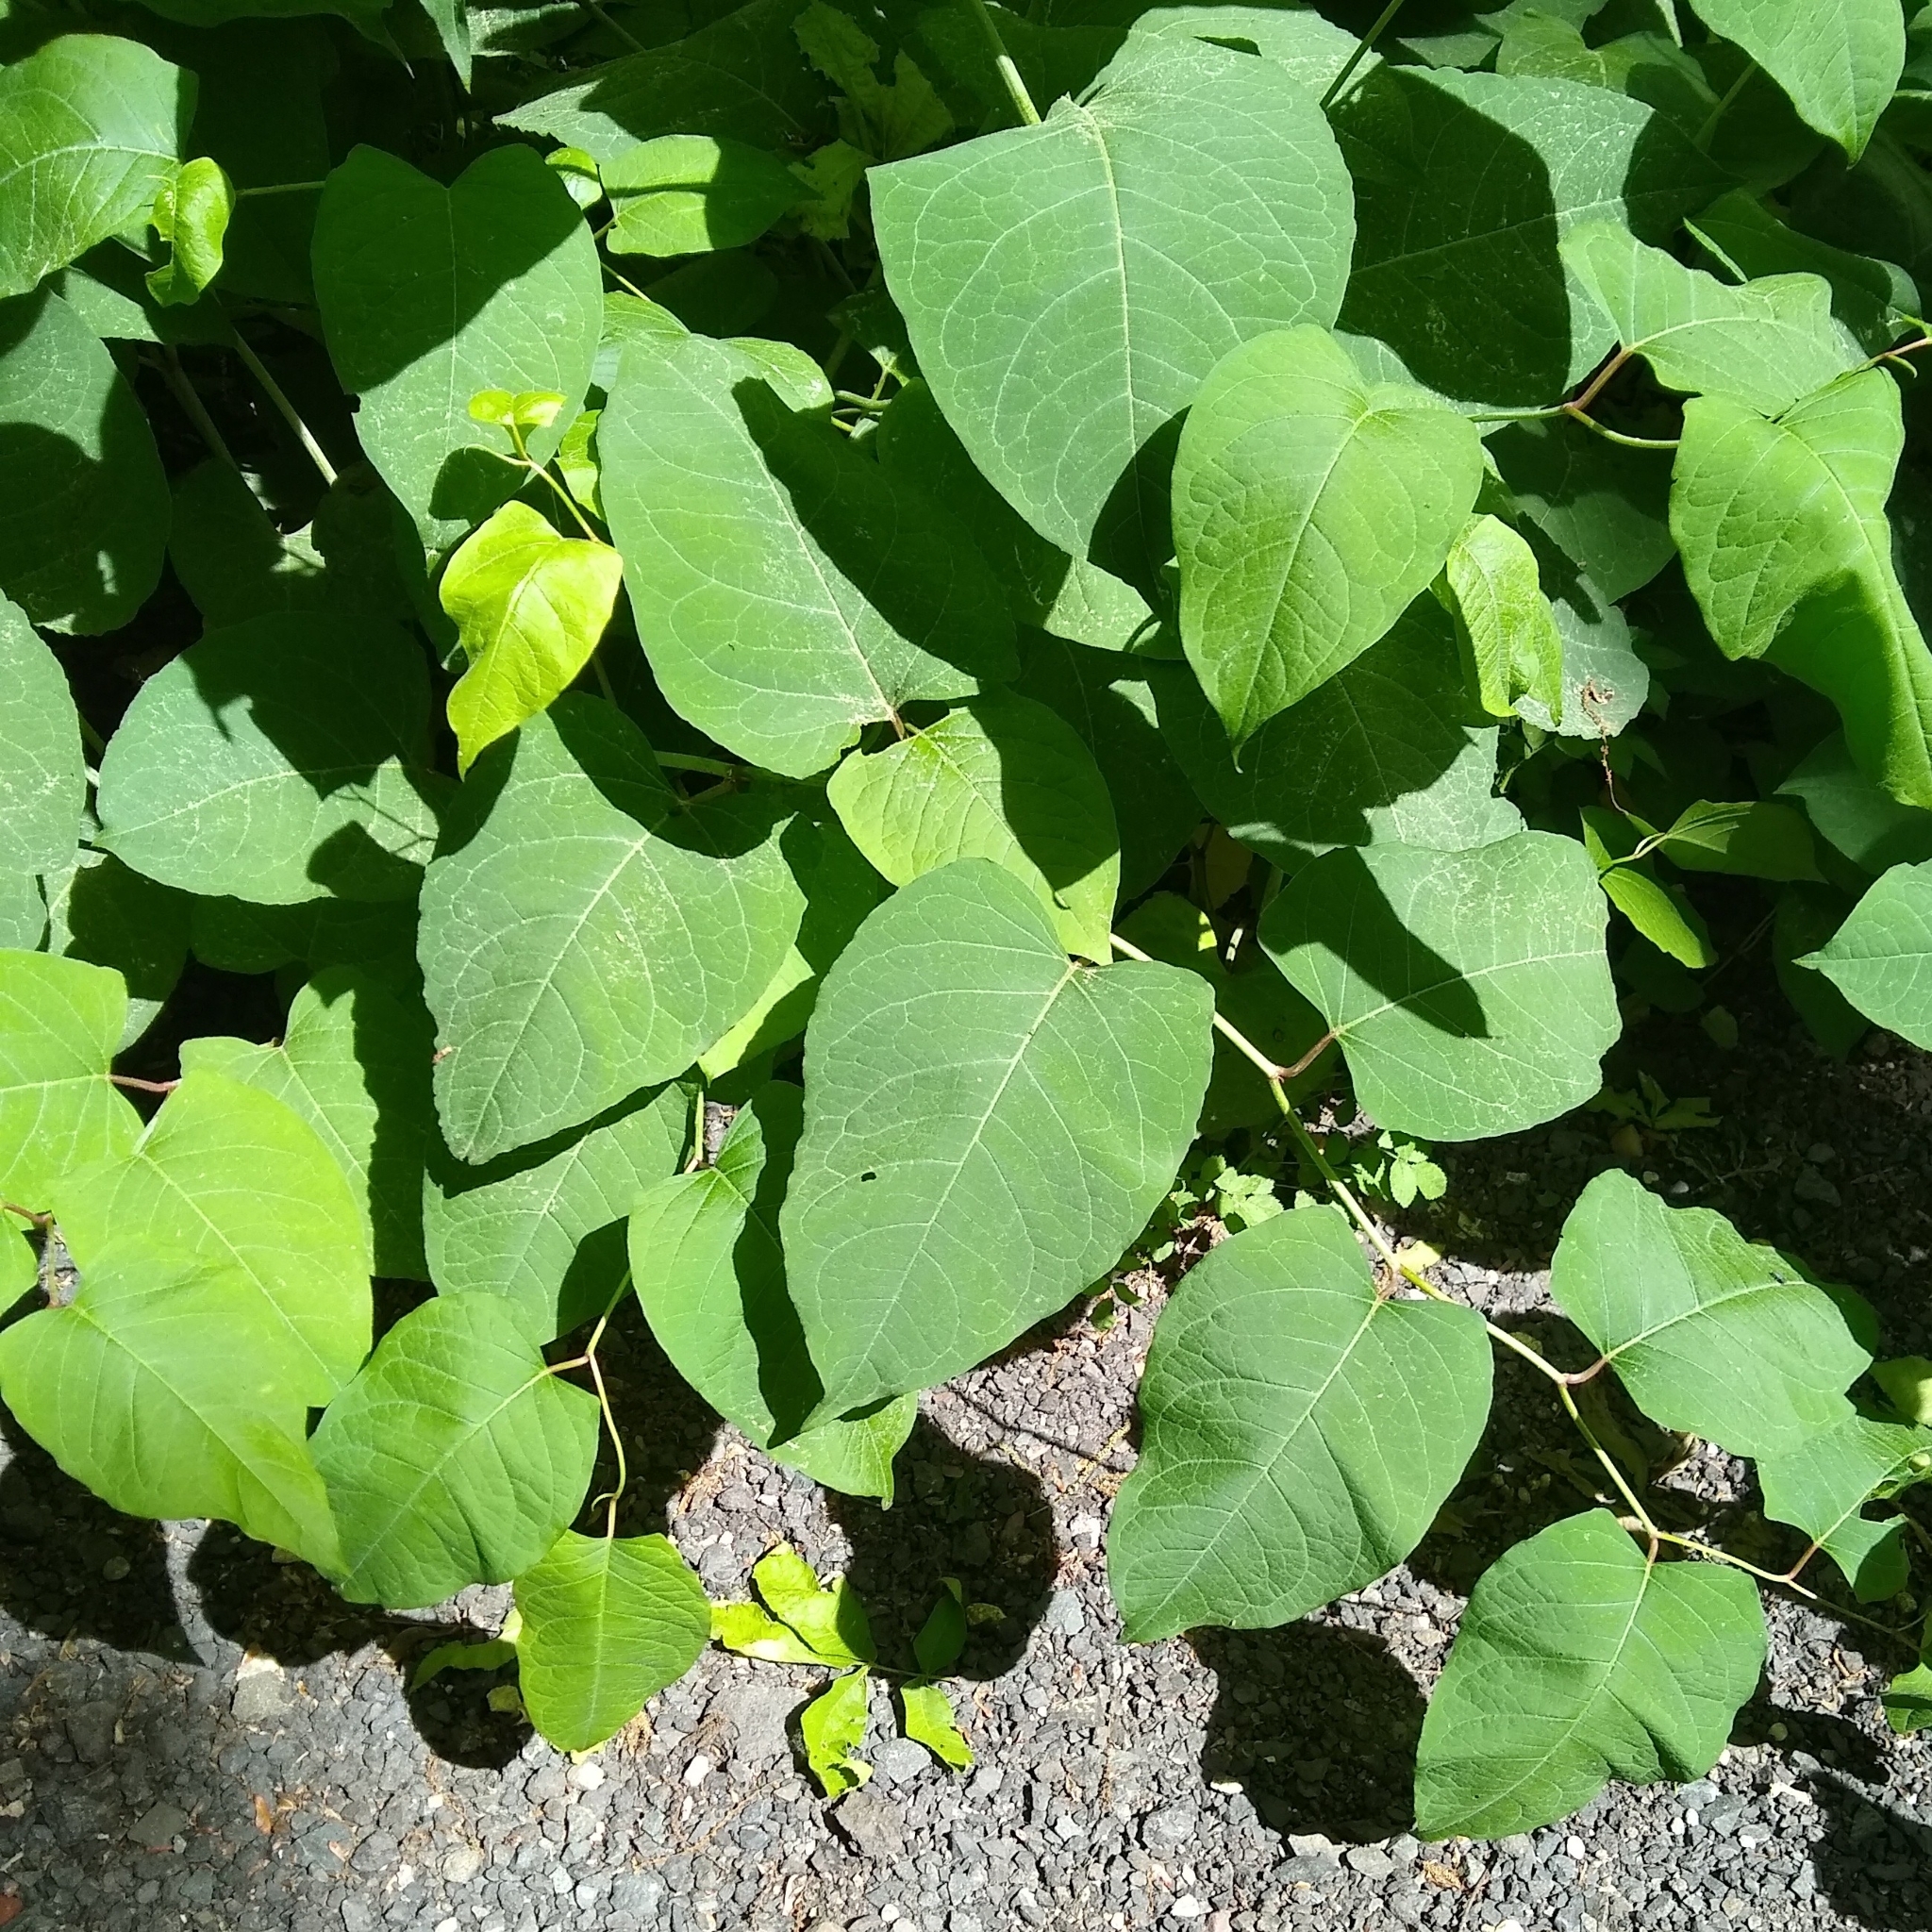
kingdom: Plantae
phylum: Tracheophyta
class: Magnoliopsida
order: Caryophyllales
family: Polygonaceae
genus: Reynoutria
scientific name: Reynoutria sachalinensis
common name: Giant knotweed
